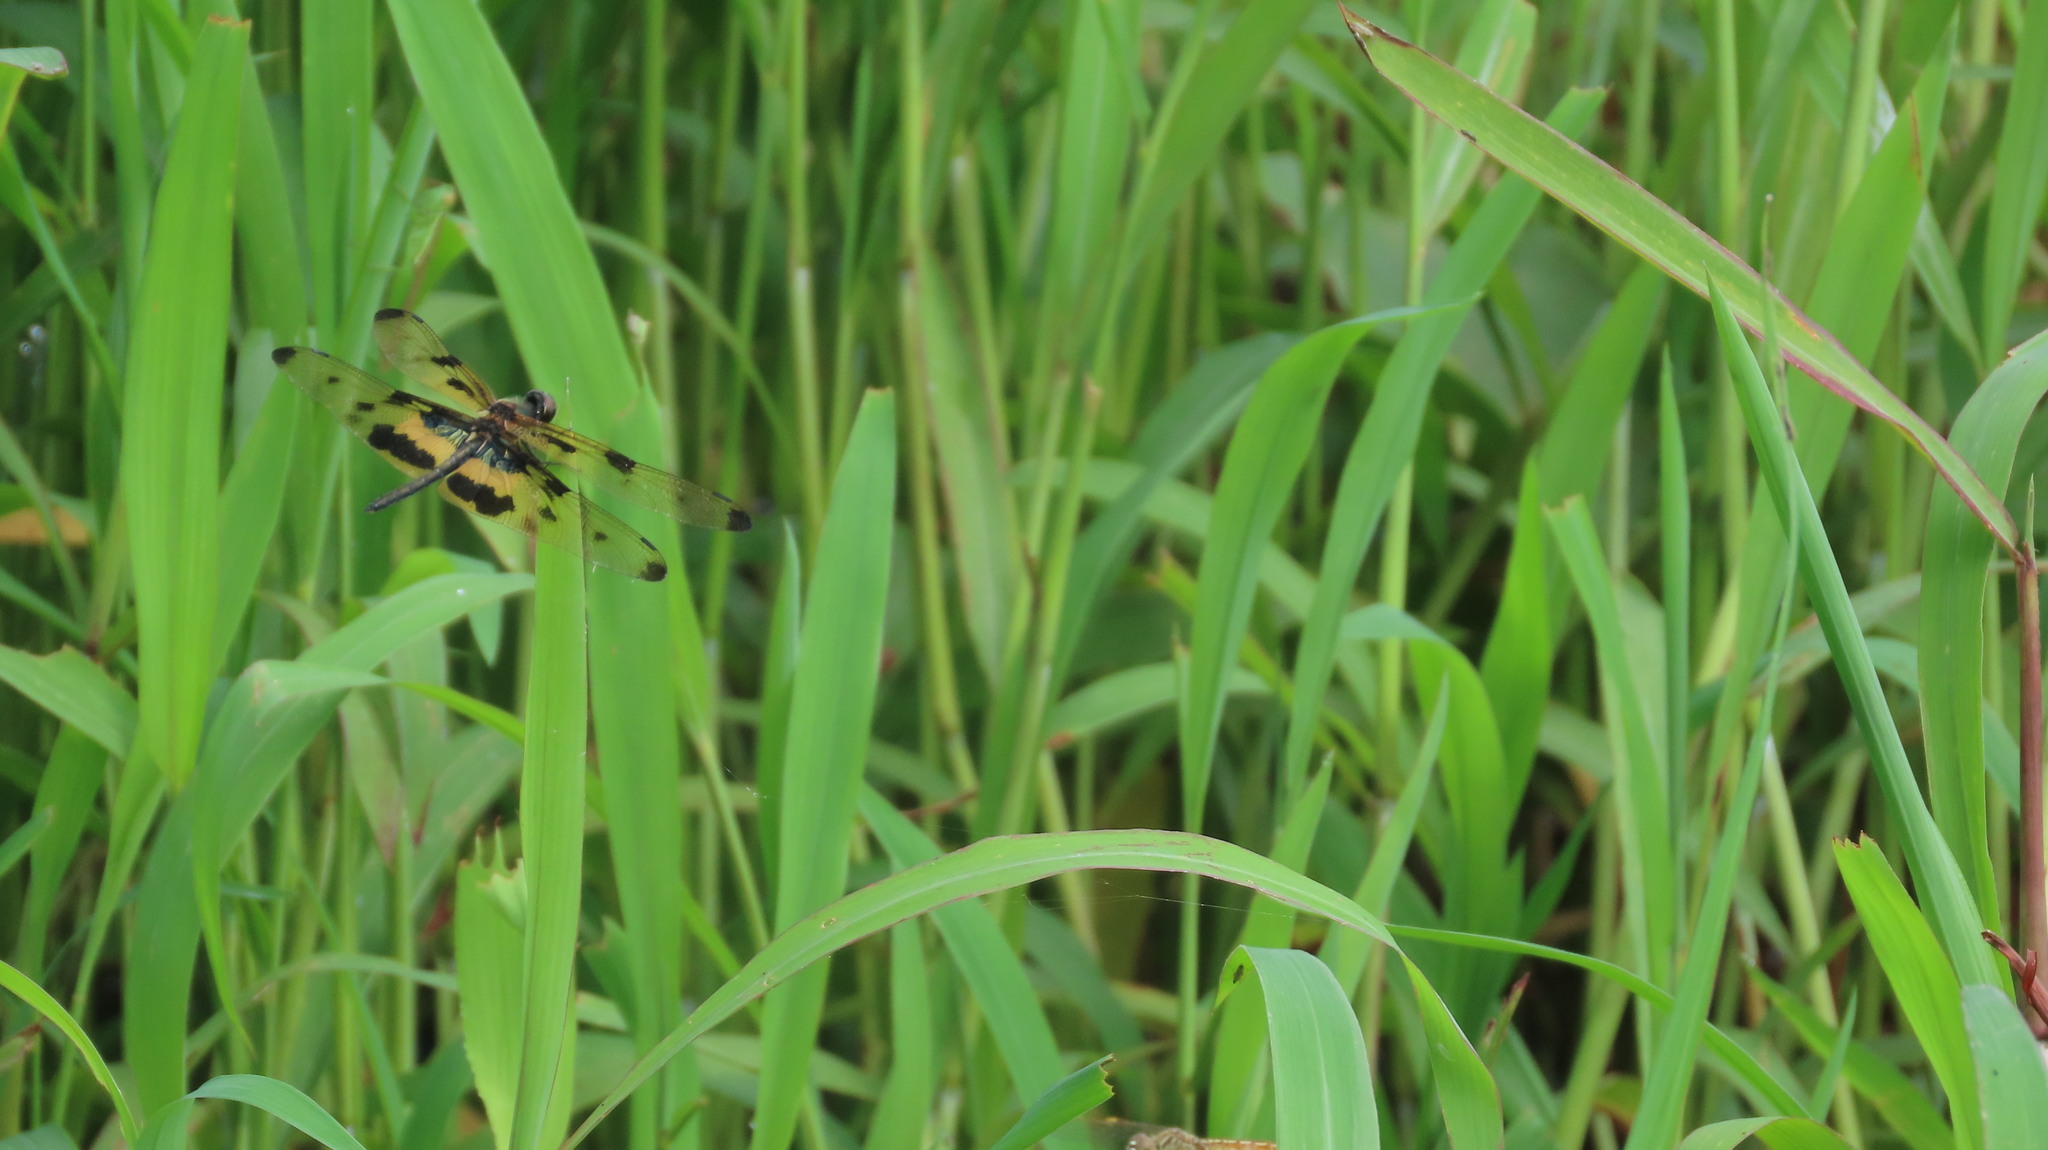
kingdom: Animalia
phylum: Arthropoda
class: Insecta
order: Odonata
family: Libellulidae
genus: Rhyothemis
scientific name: Rhyothemis variegata
